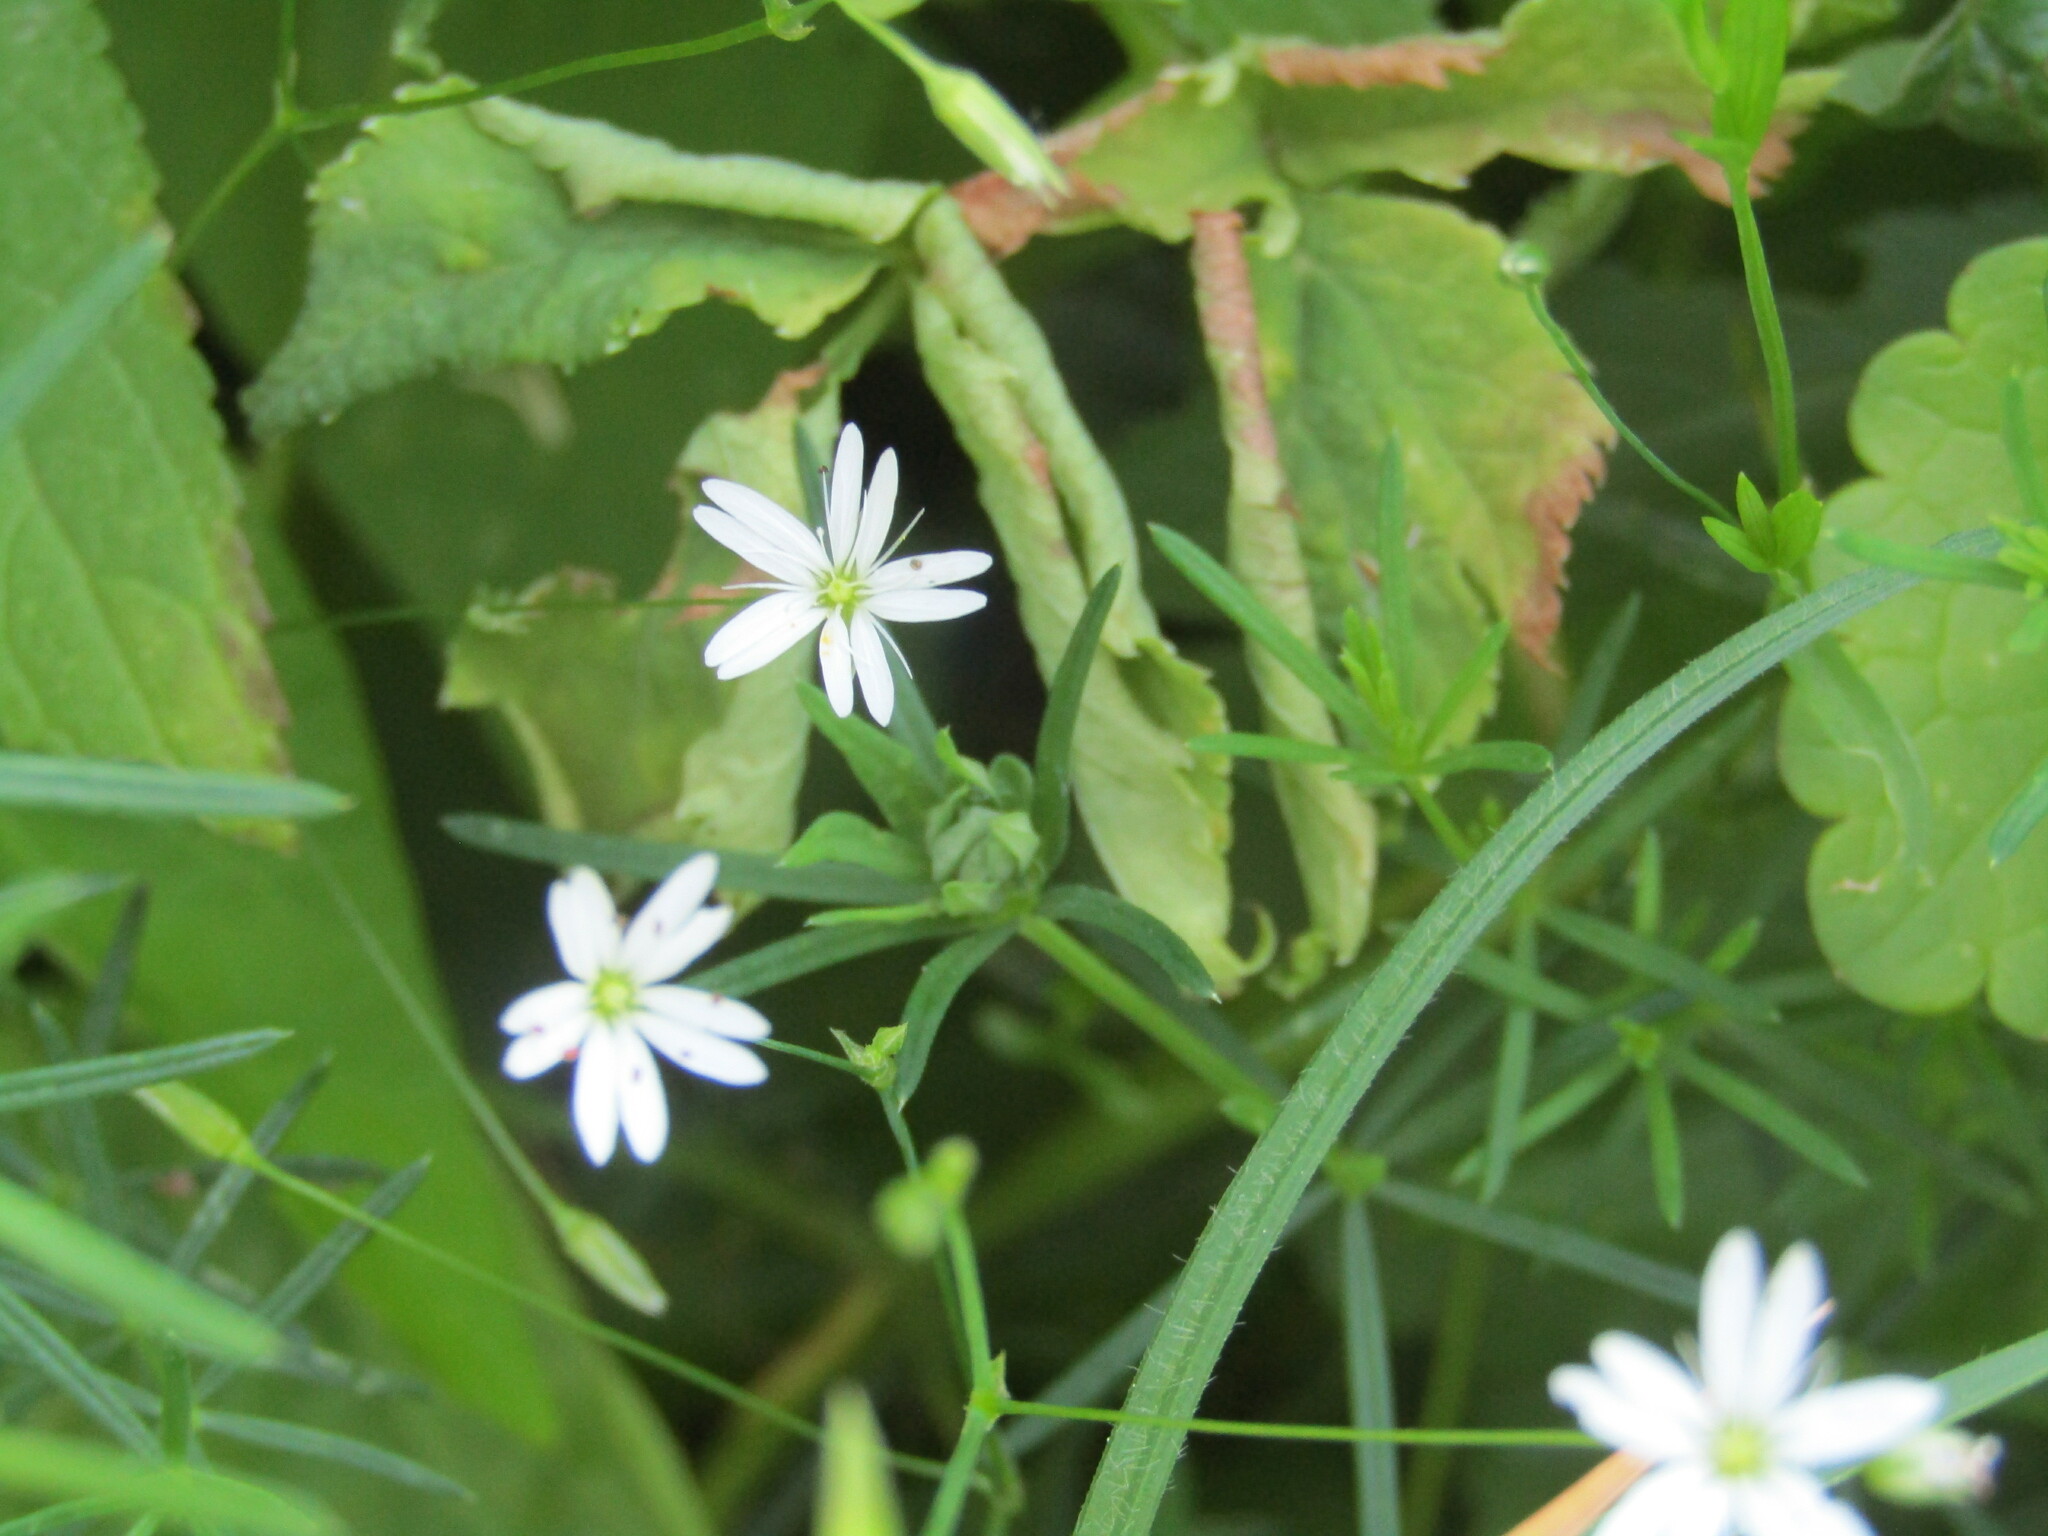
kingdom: Plantae
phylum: Tracheophyta
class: Magnoliopsida
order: Caryophyllales
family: Caryophyllaceae
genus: Stellaria
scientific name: Stellaria graminea
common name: Grass-like starwort
